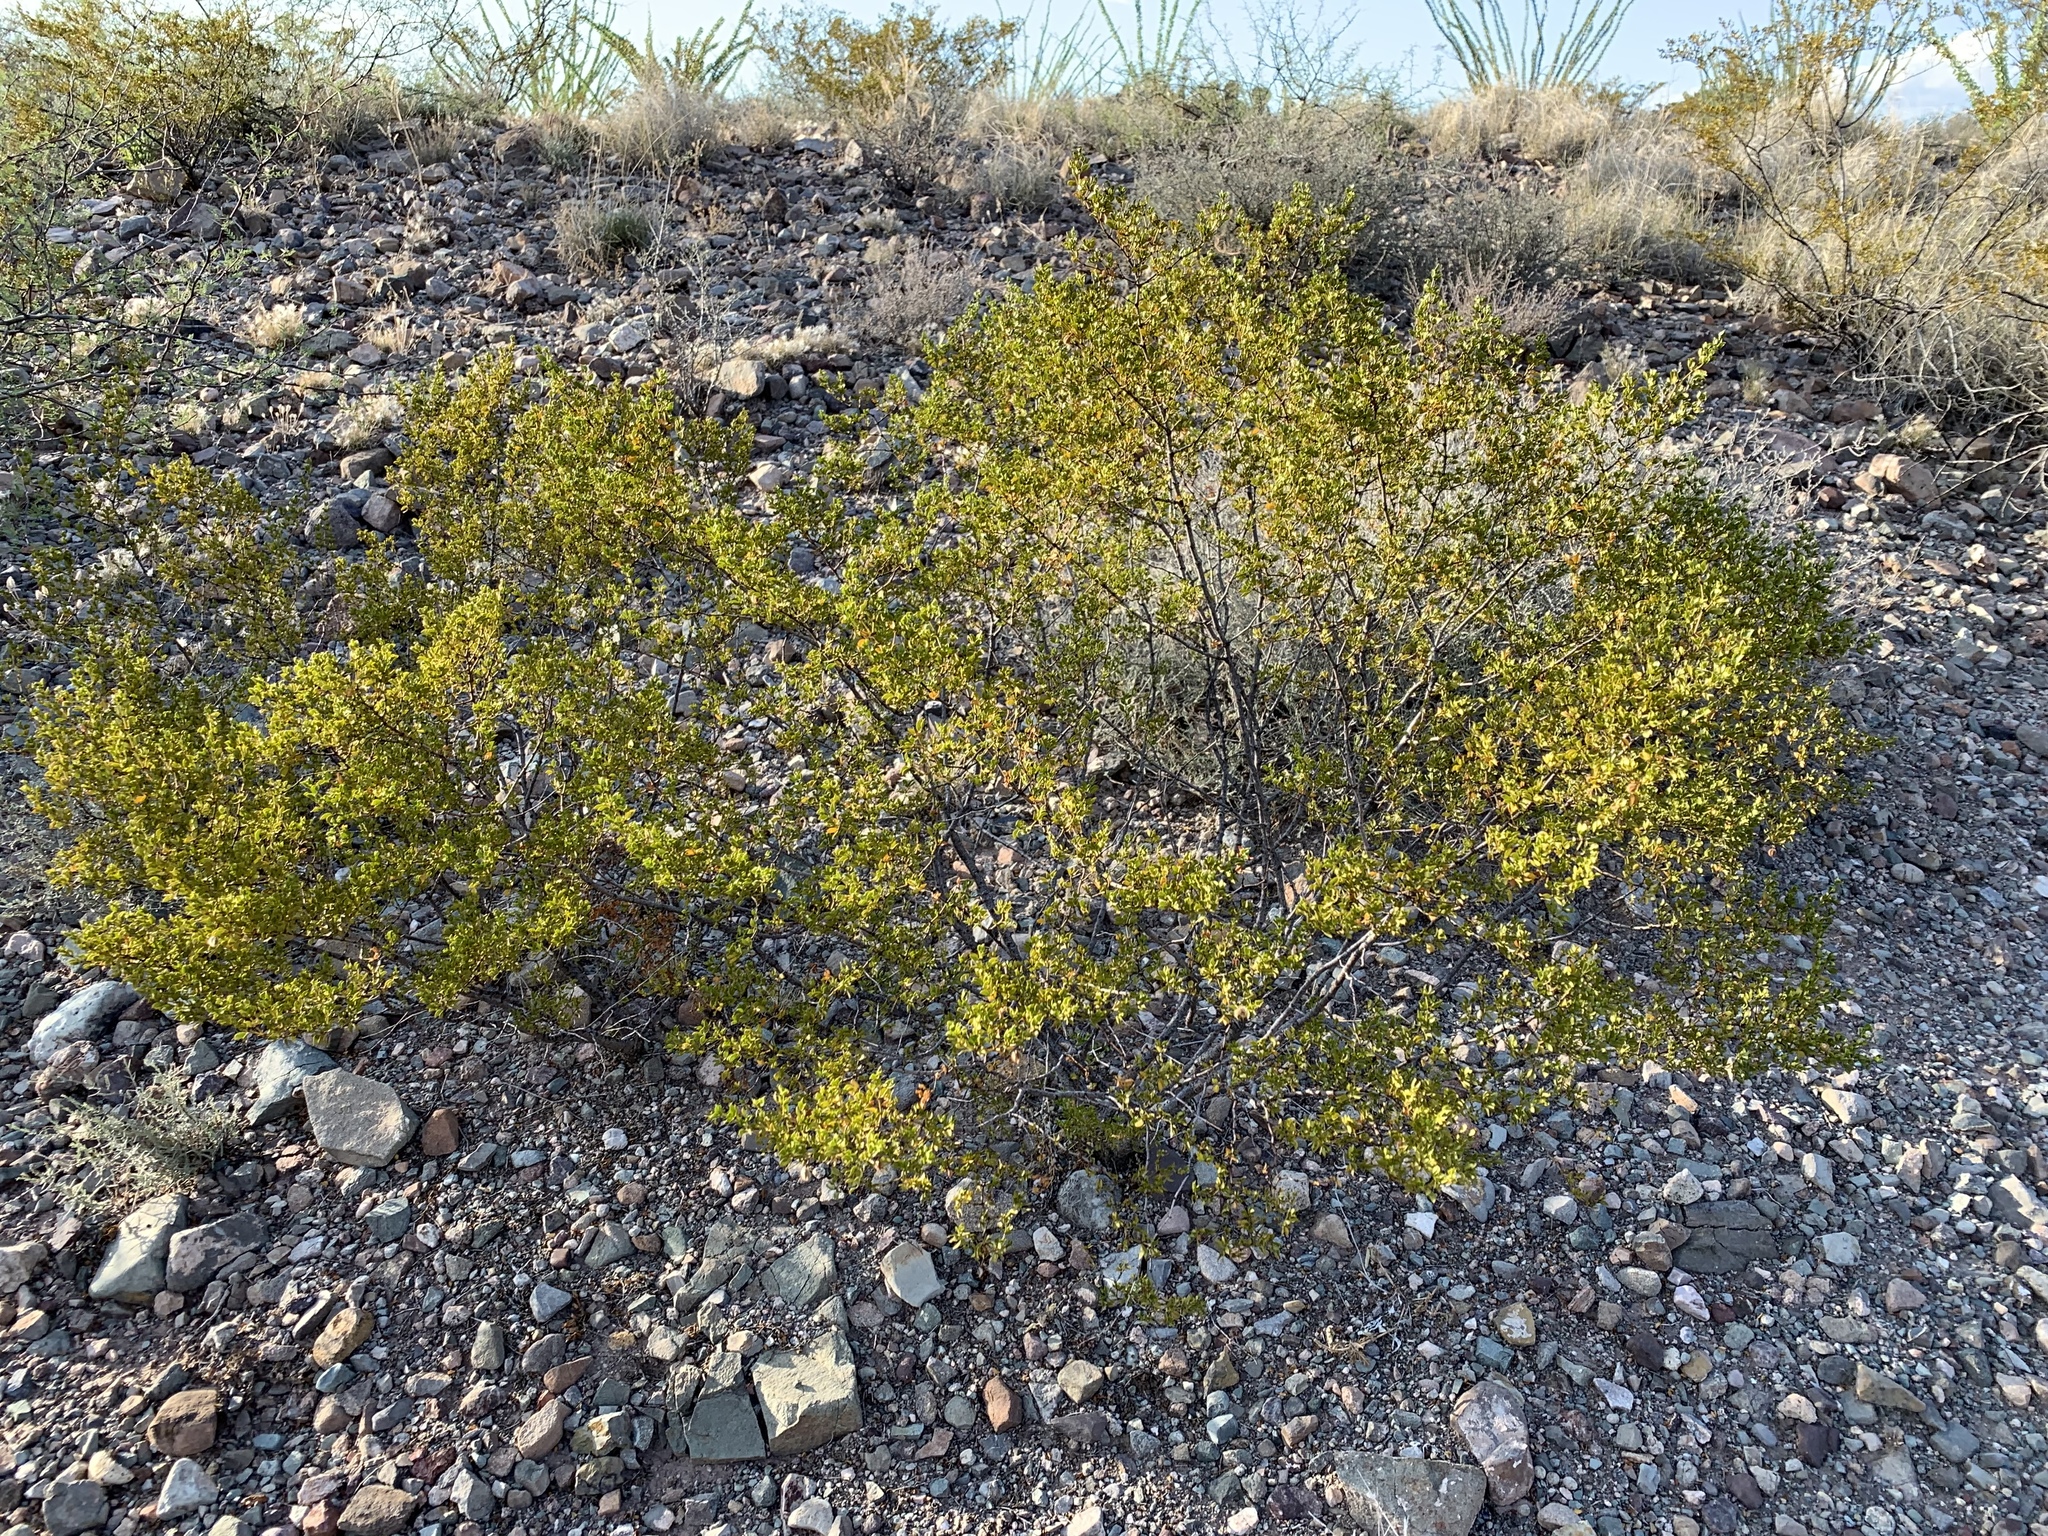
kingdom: Plantae
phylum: Tracheophyta
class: Magnoliopsida
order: Zygophyllales
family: Zygophyllaceae
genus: Larrea
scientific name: Larrea tridentata
